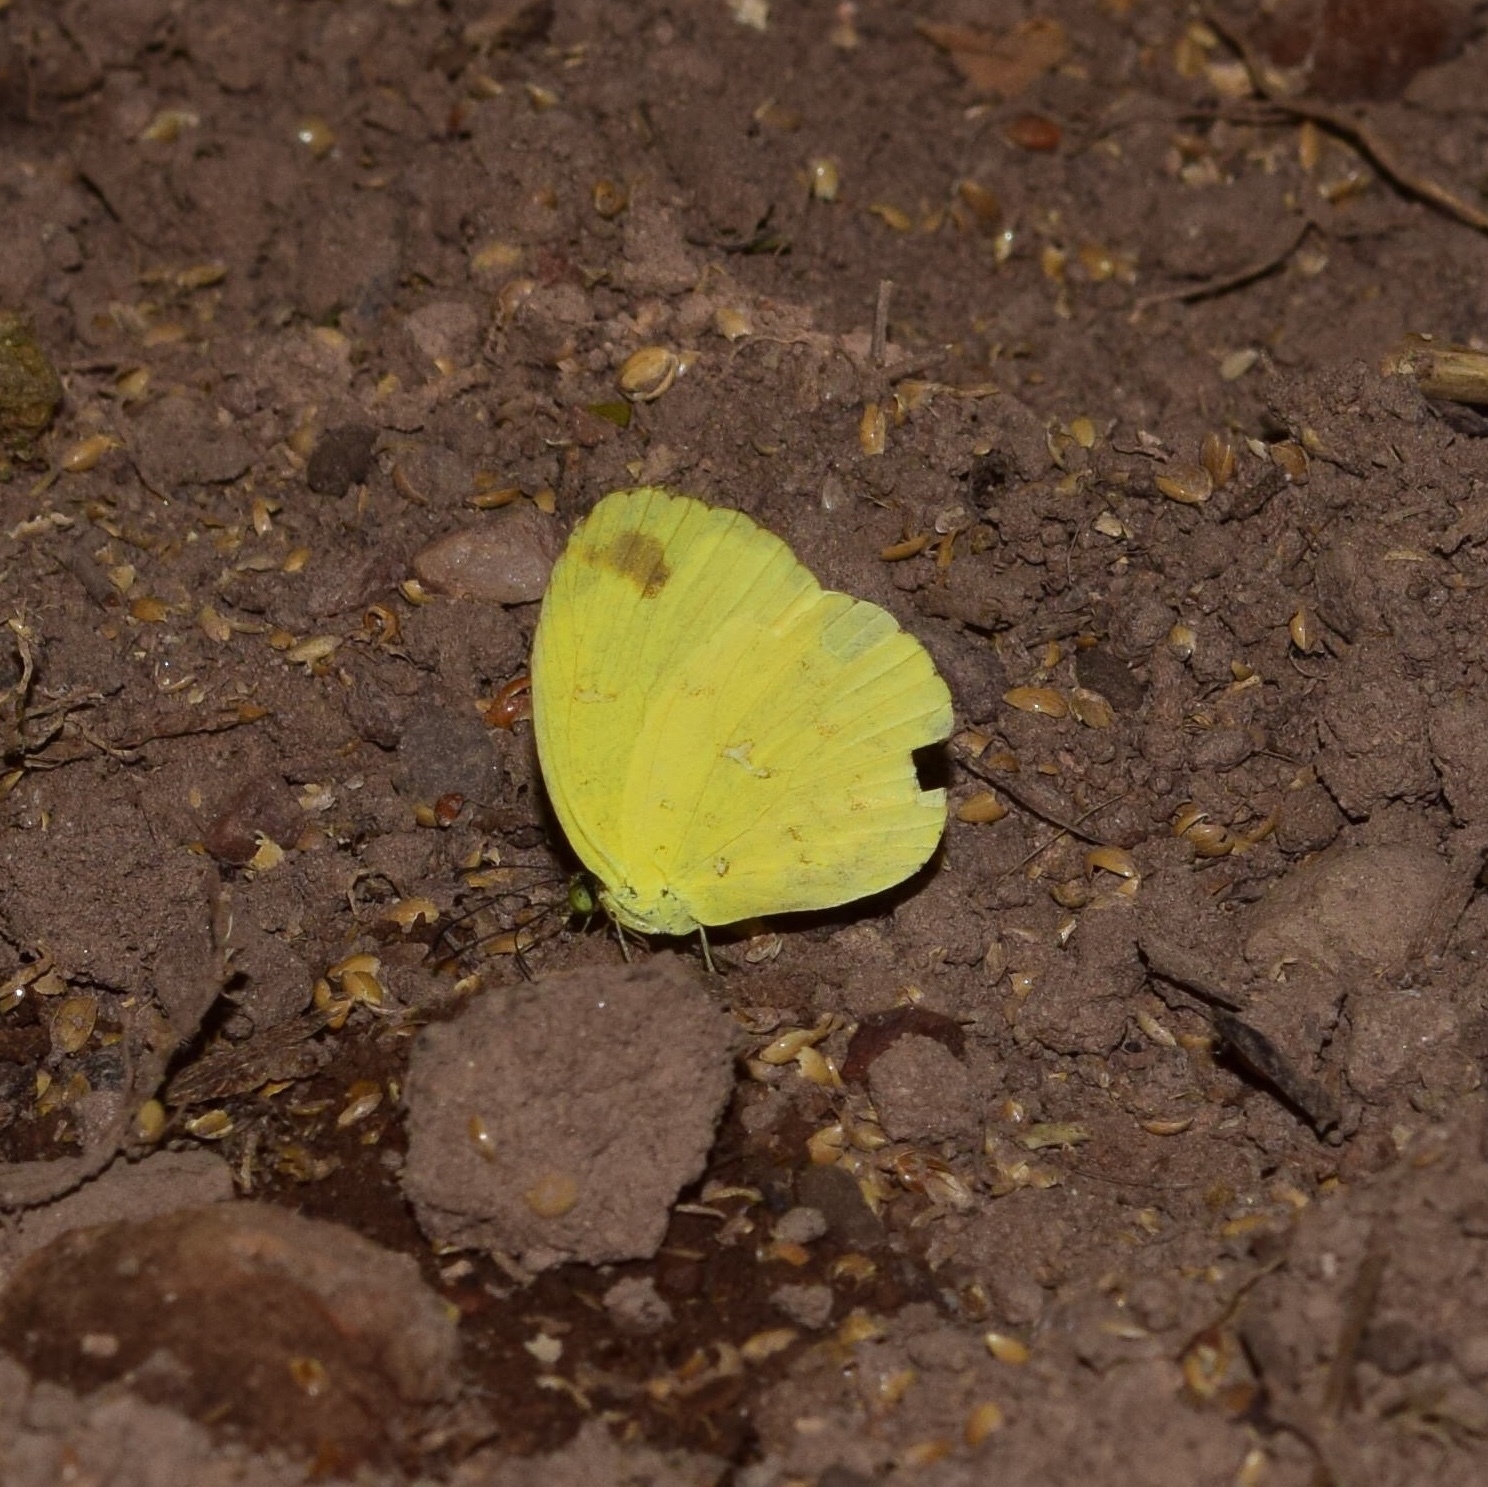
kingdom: Animalia
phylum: Arthropoda
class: Insecta
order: Lepidoptera
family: Pieridae
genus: Eurema
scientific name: Eurema floricola
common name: Malagasy grass yellow
